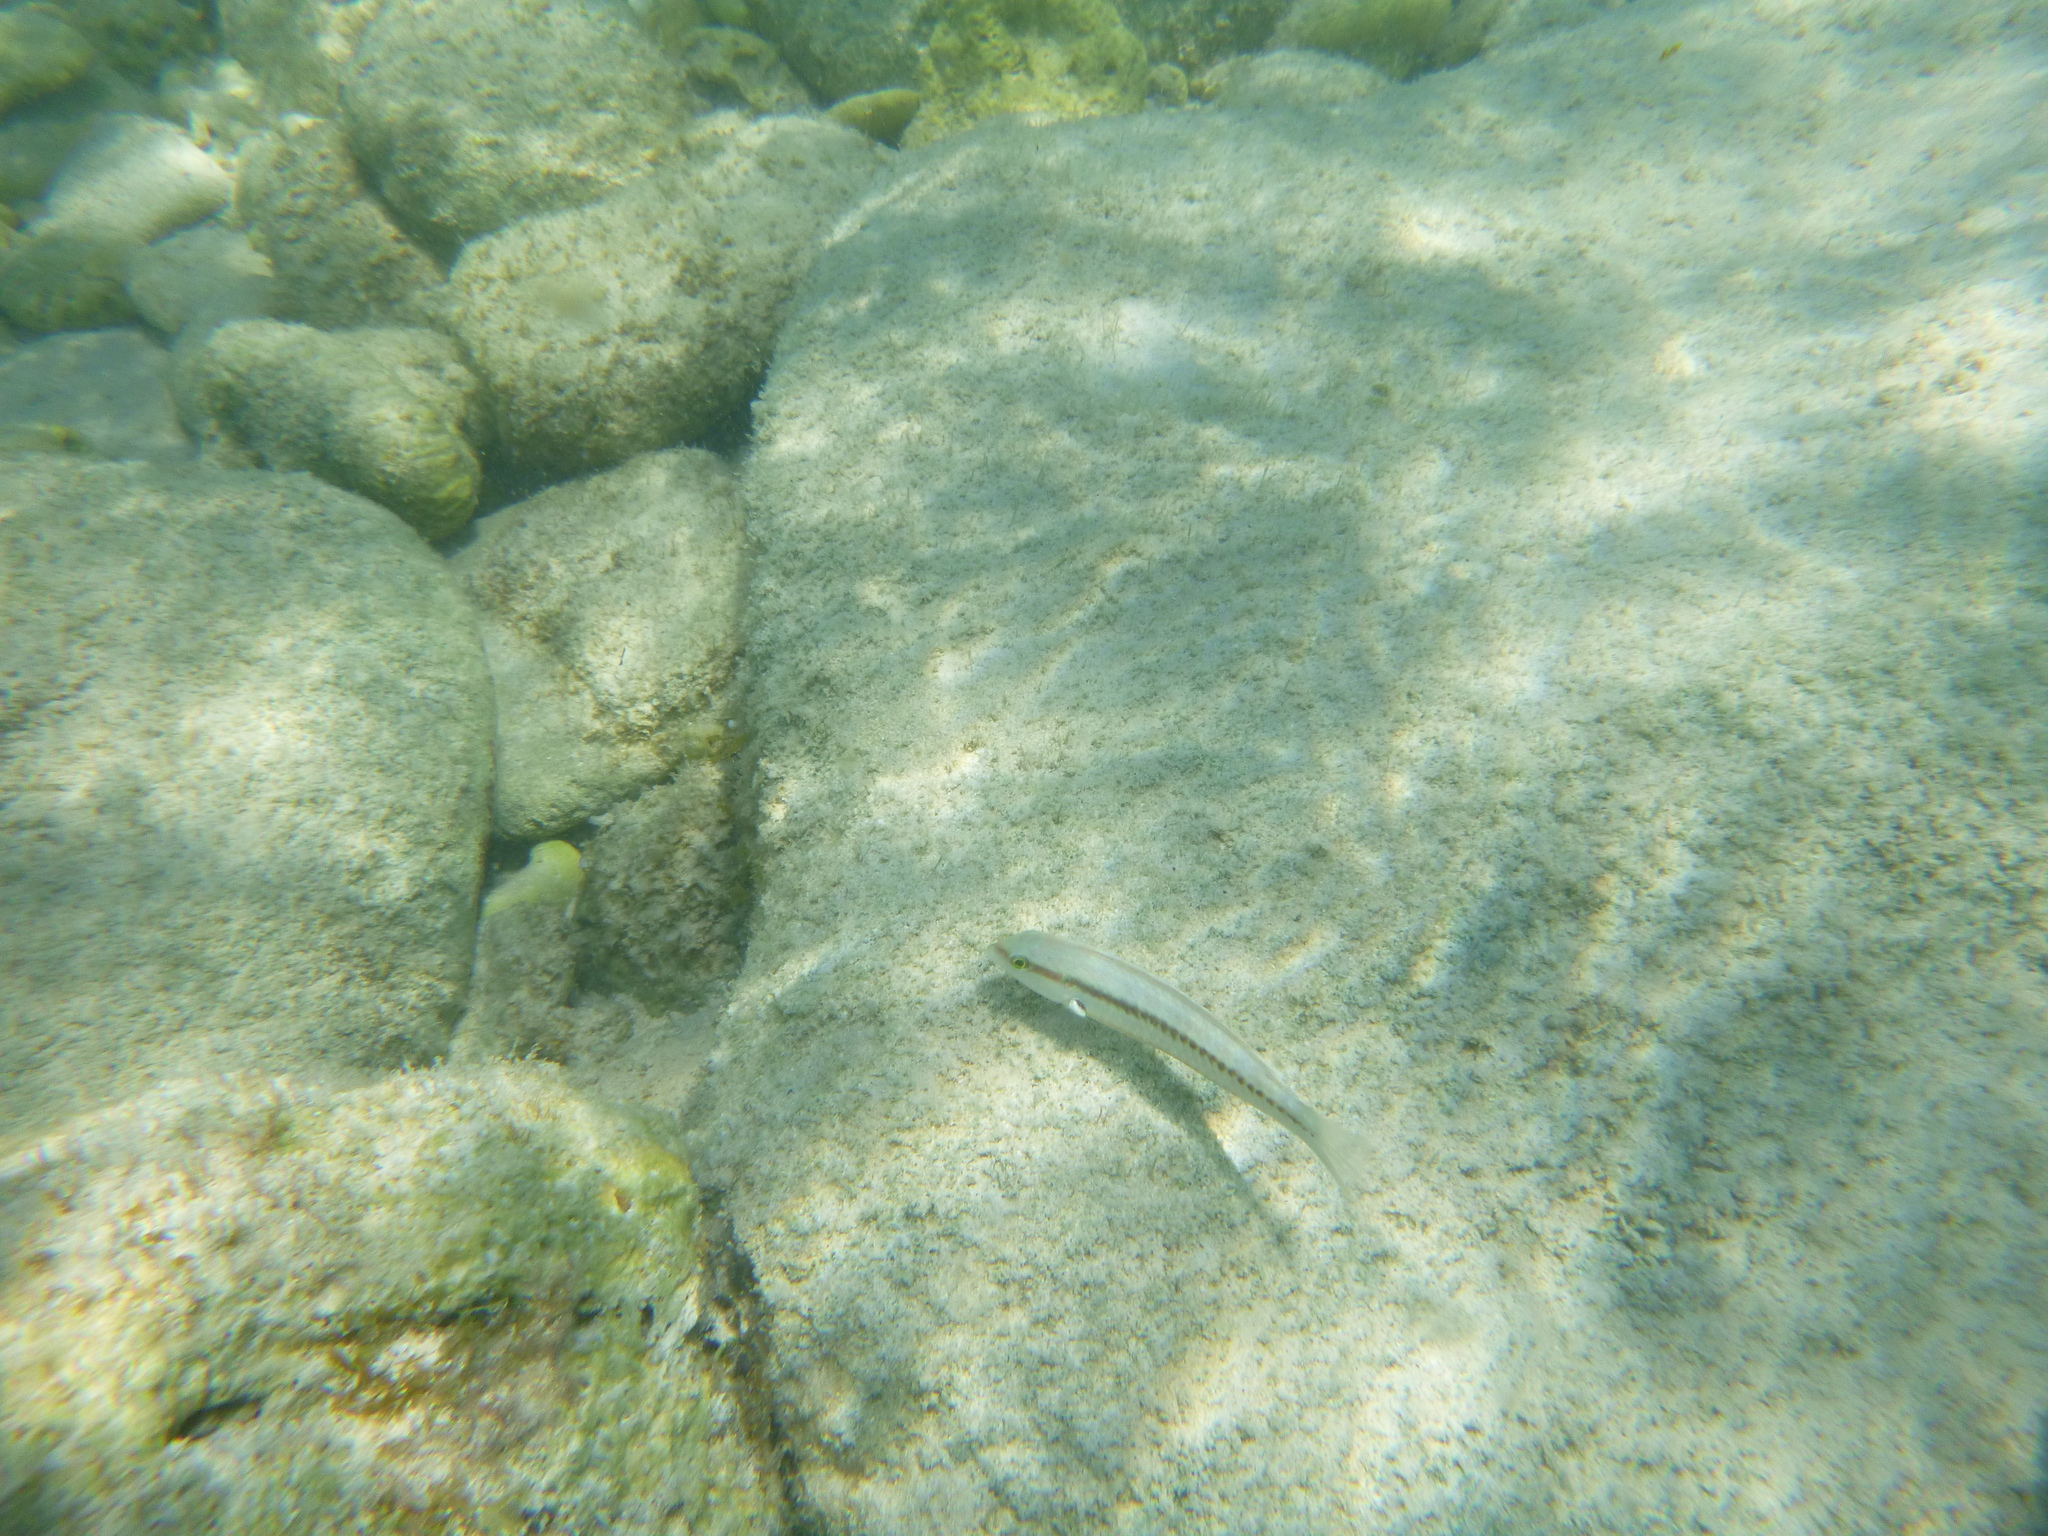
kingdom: Animalia
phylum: Chordata
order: Perciformes
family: Labridae
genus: Halichoeres
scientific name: Halichoeres bivittatus
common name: Slippery dick
